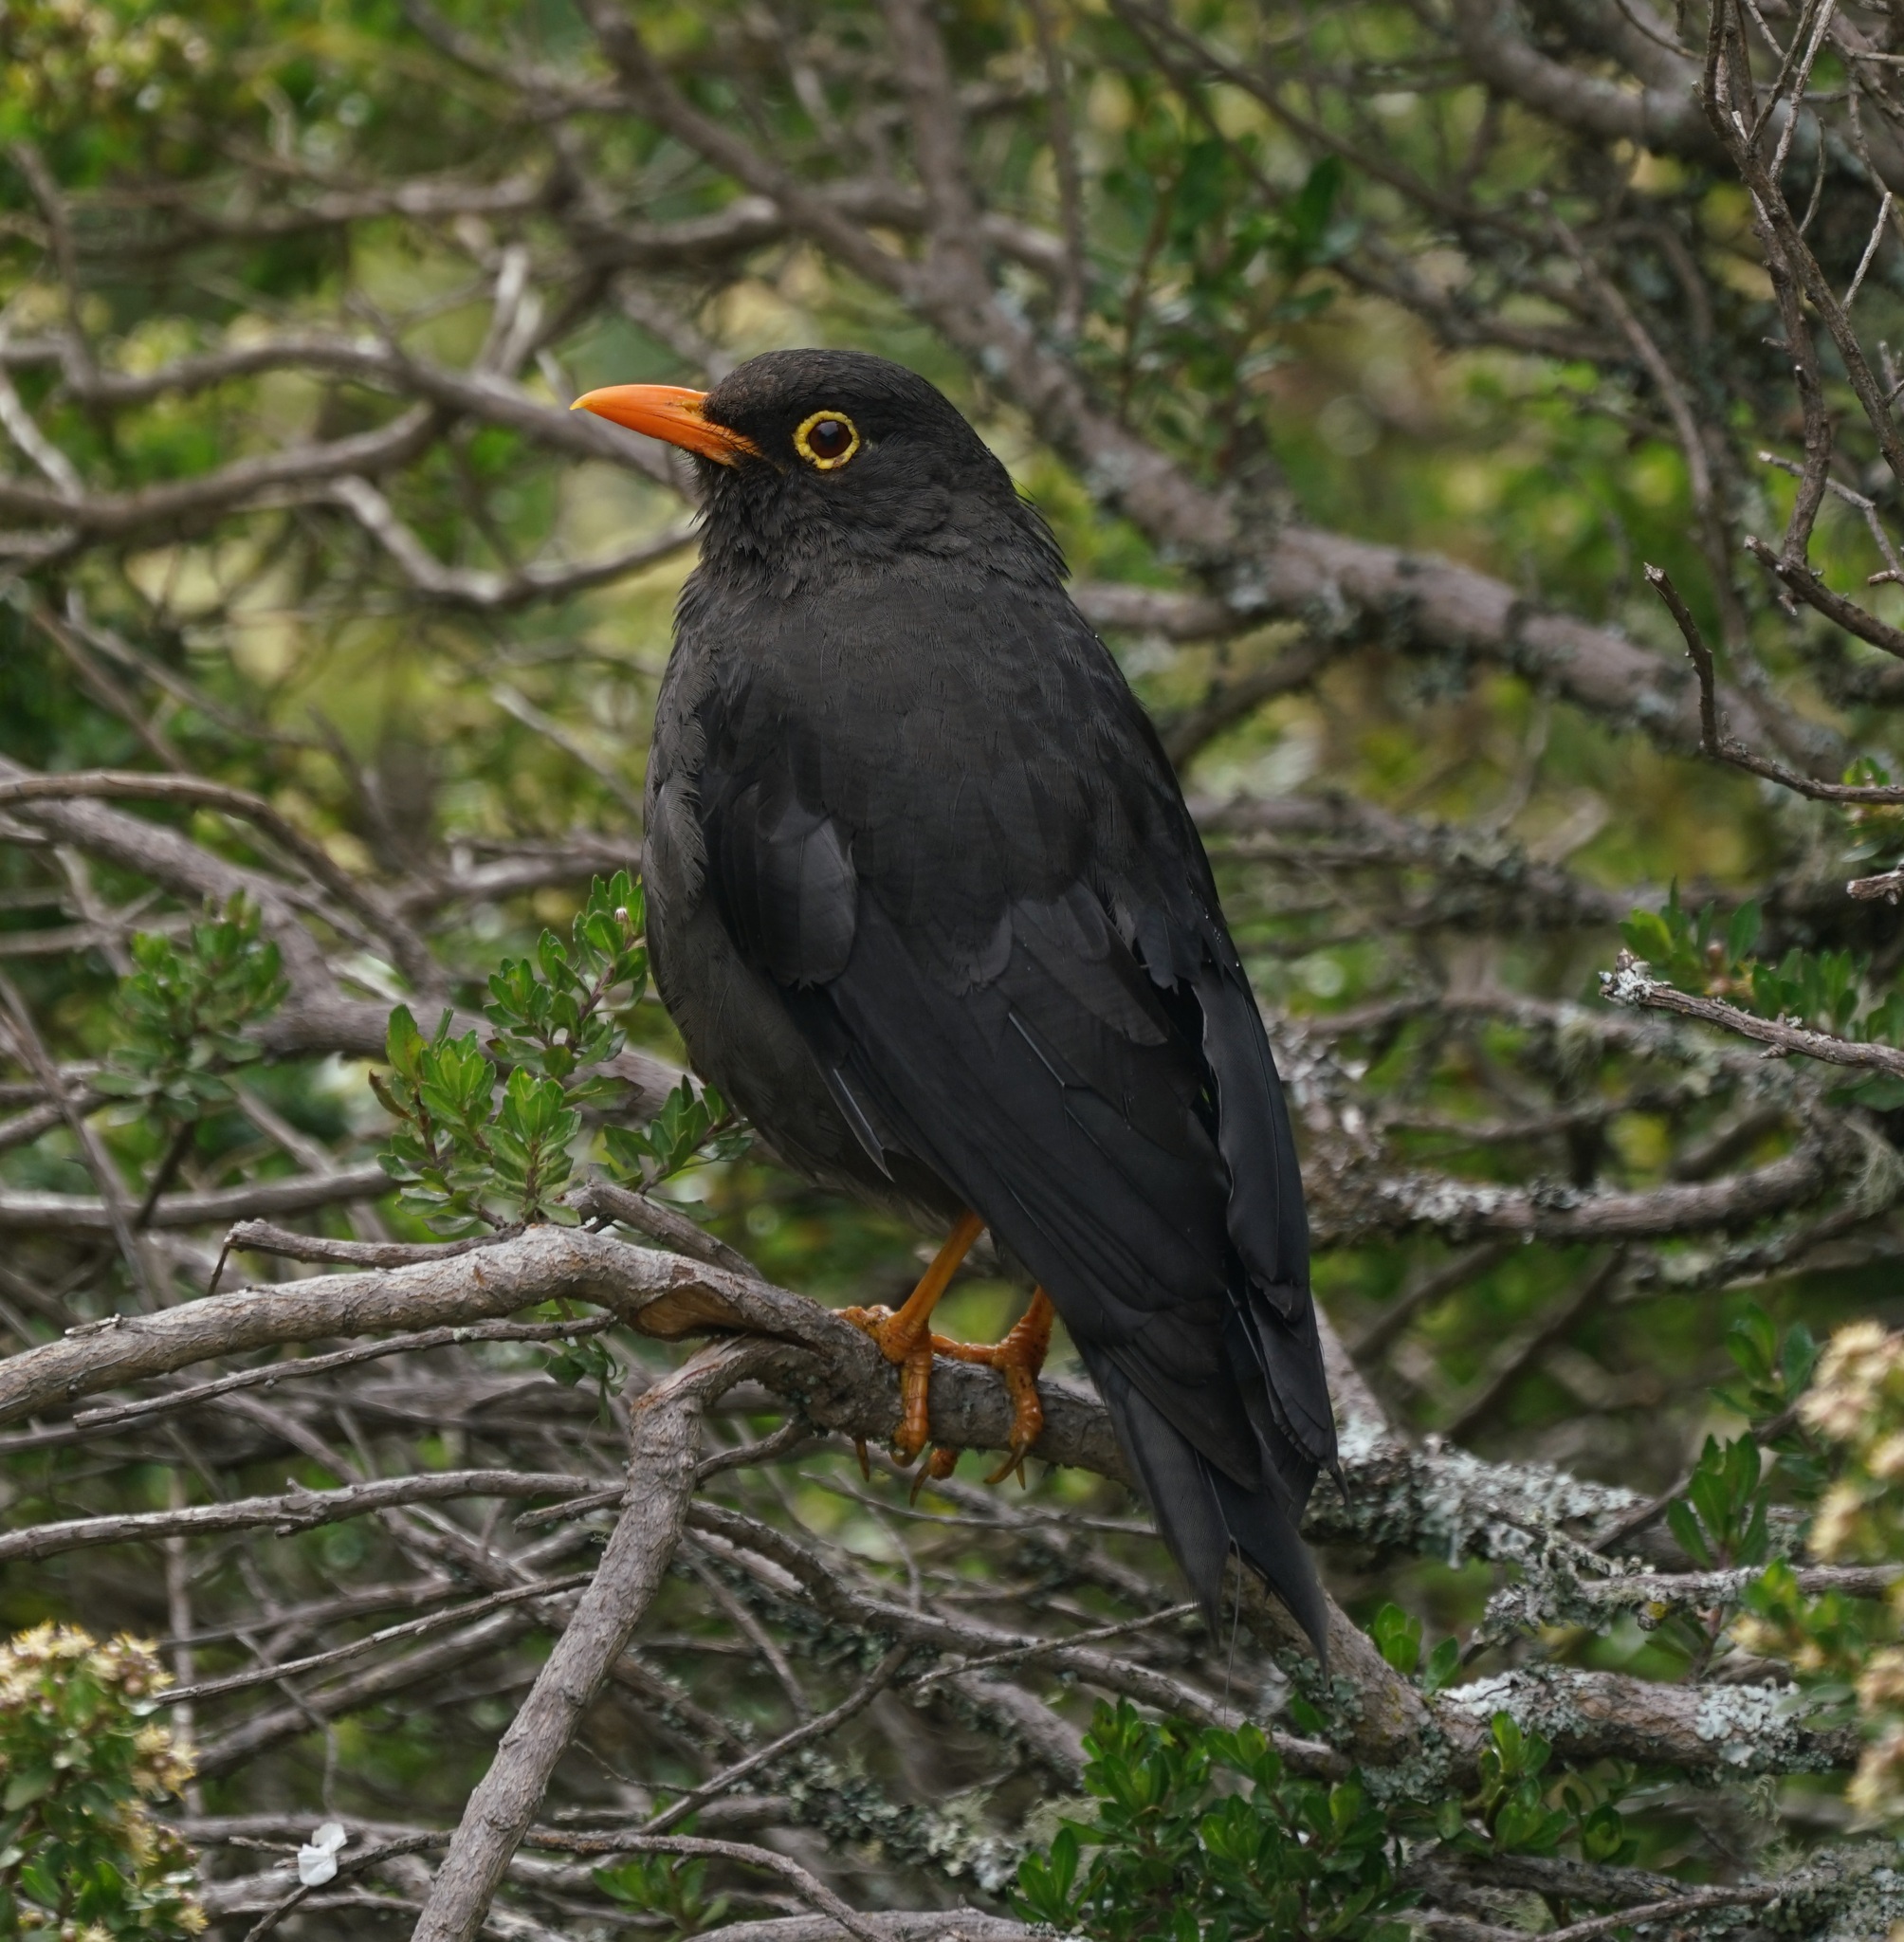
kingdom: Animalia
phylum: Chordata
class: Aves
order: Passeriformes
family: Turdidae
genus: Turdus
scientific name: Turdus fuscater
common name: Great thrush
